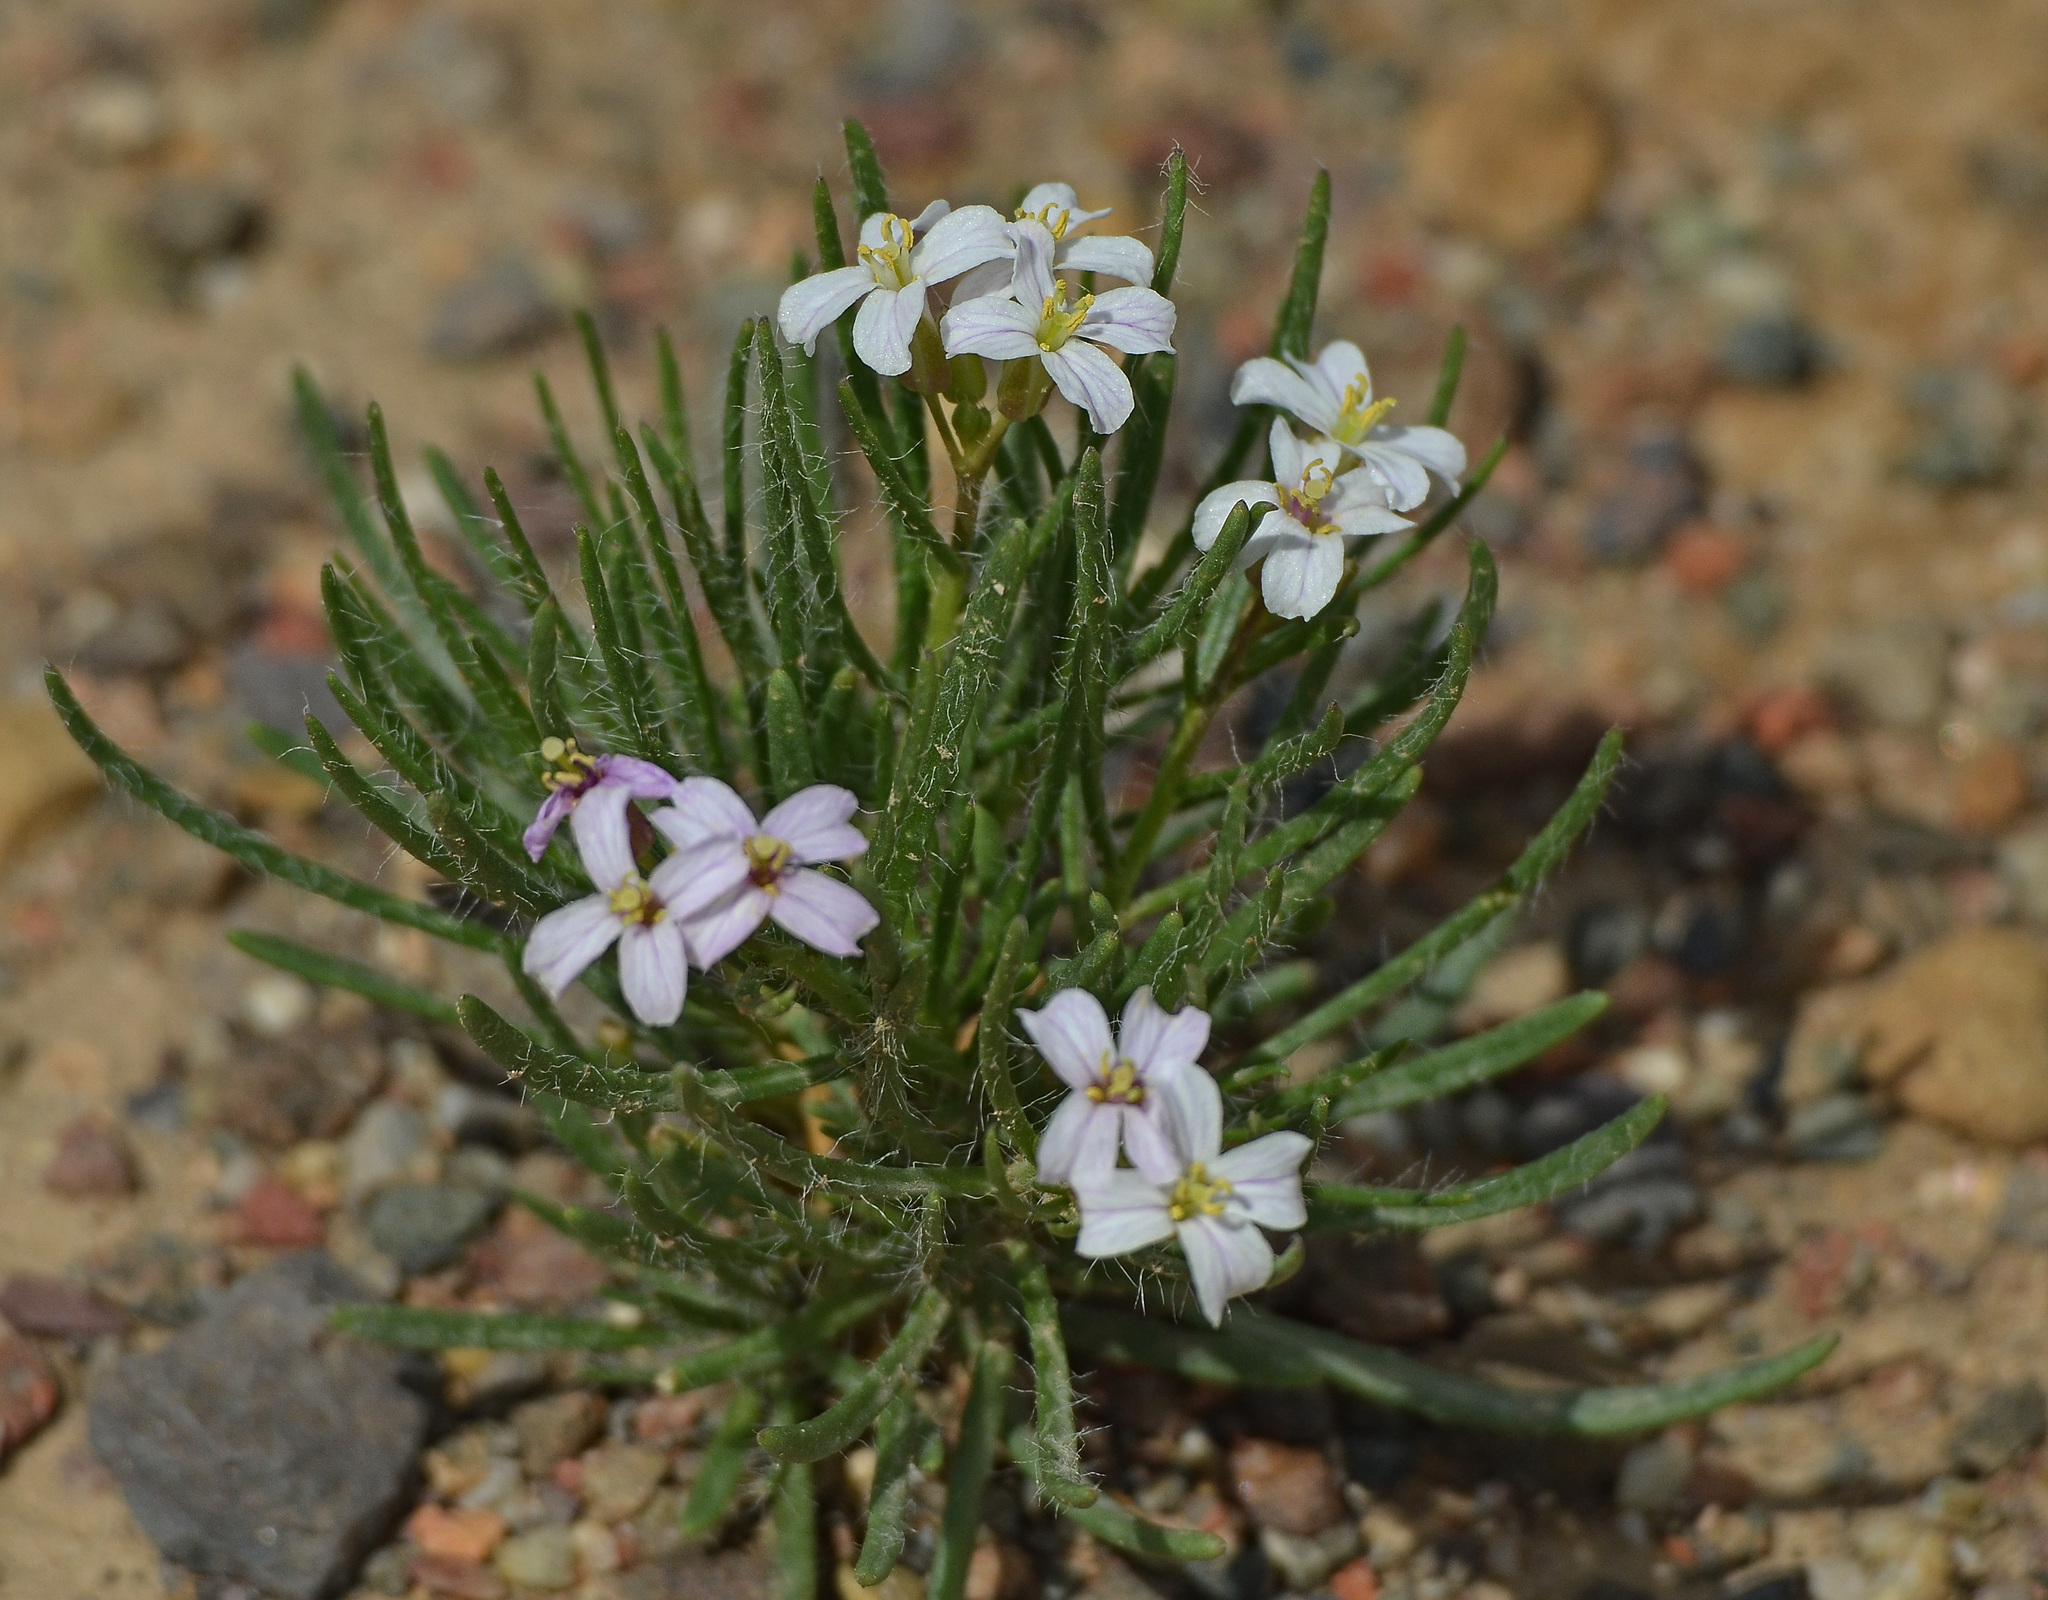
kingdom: Plantae
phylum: Tracheophyta
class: Magnoliopsida
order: Brassicales
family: Brassicaceae
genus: Dontostemon
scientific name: Dontostemon senilis
